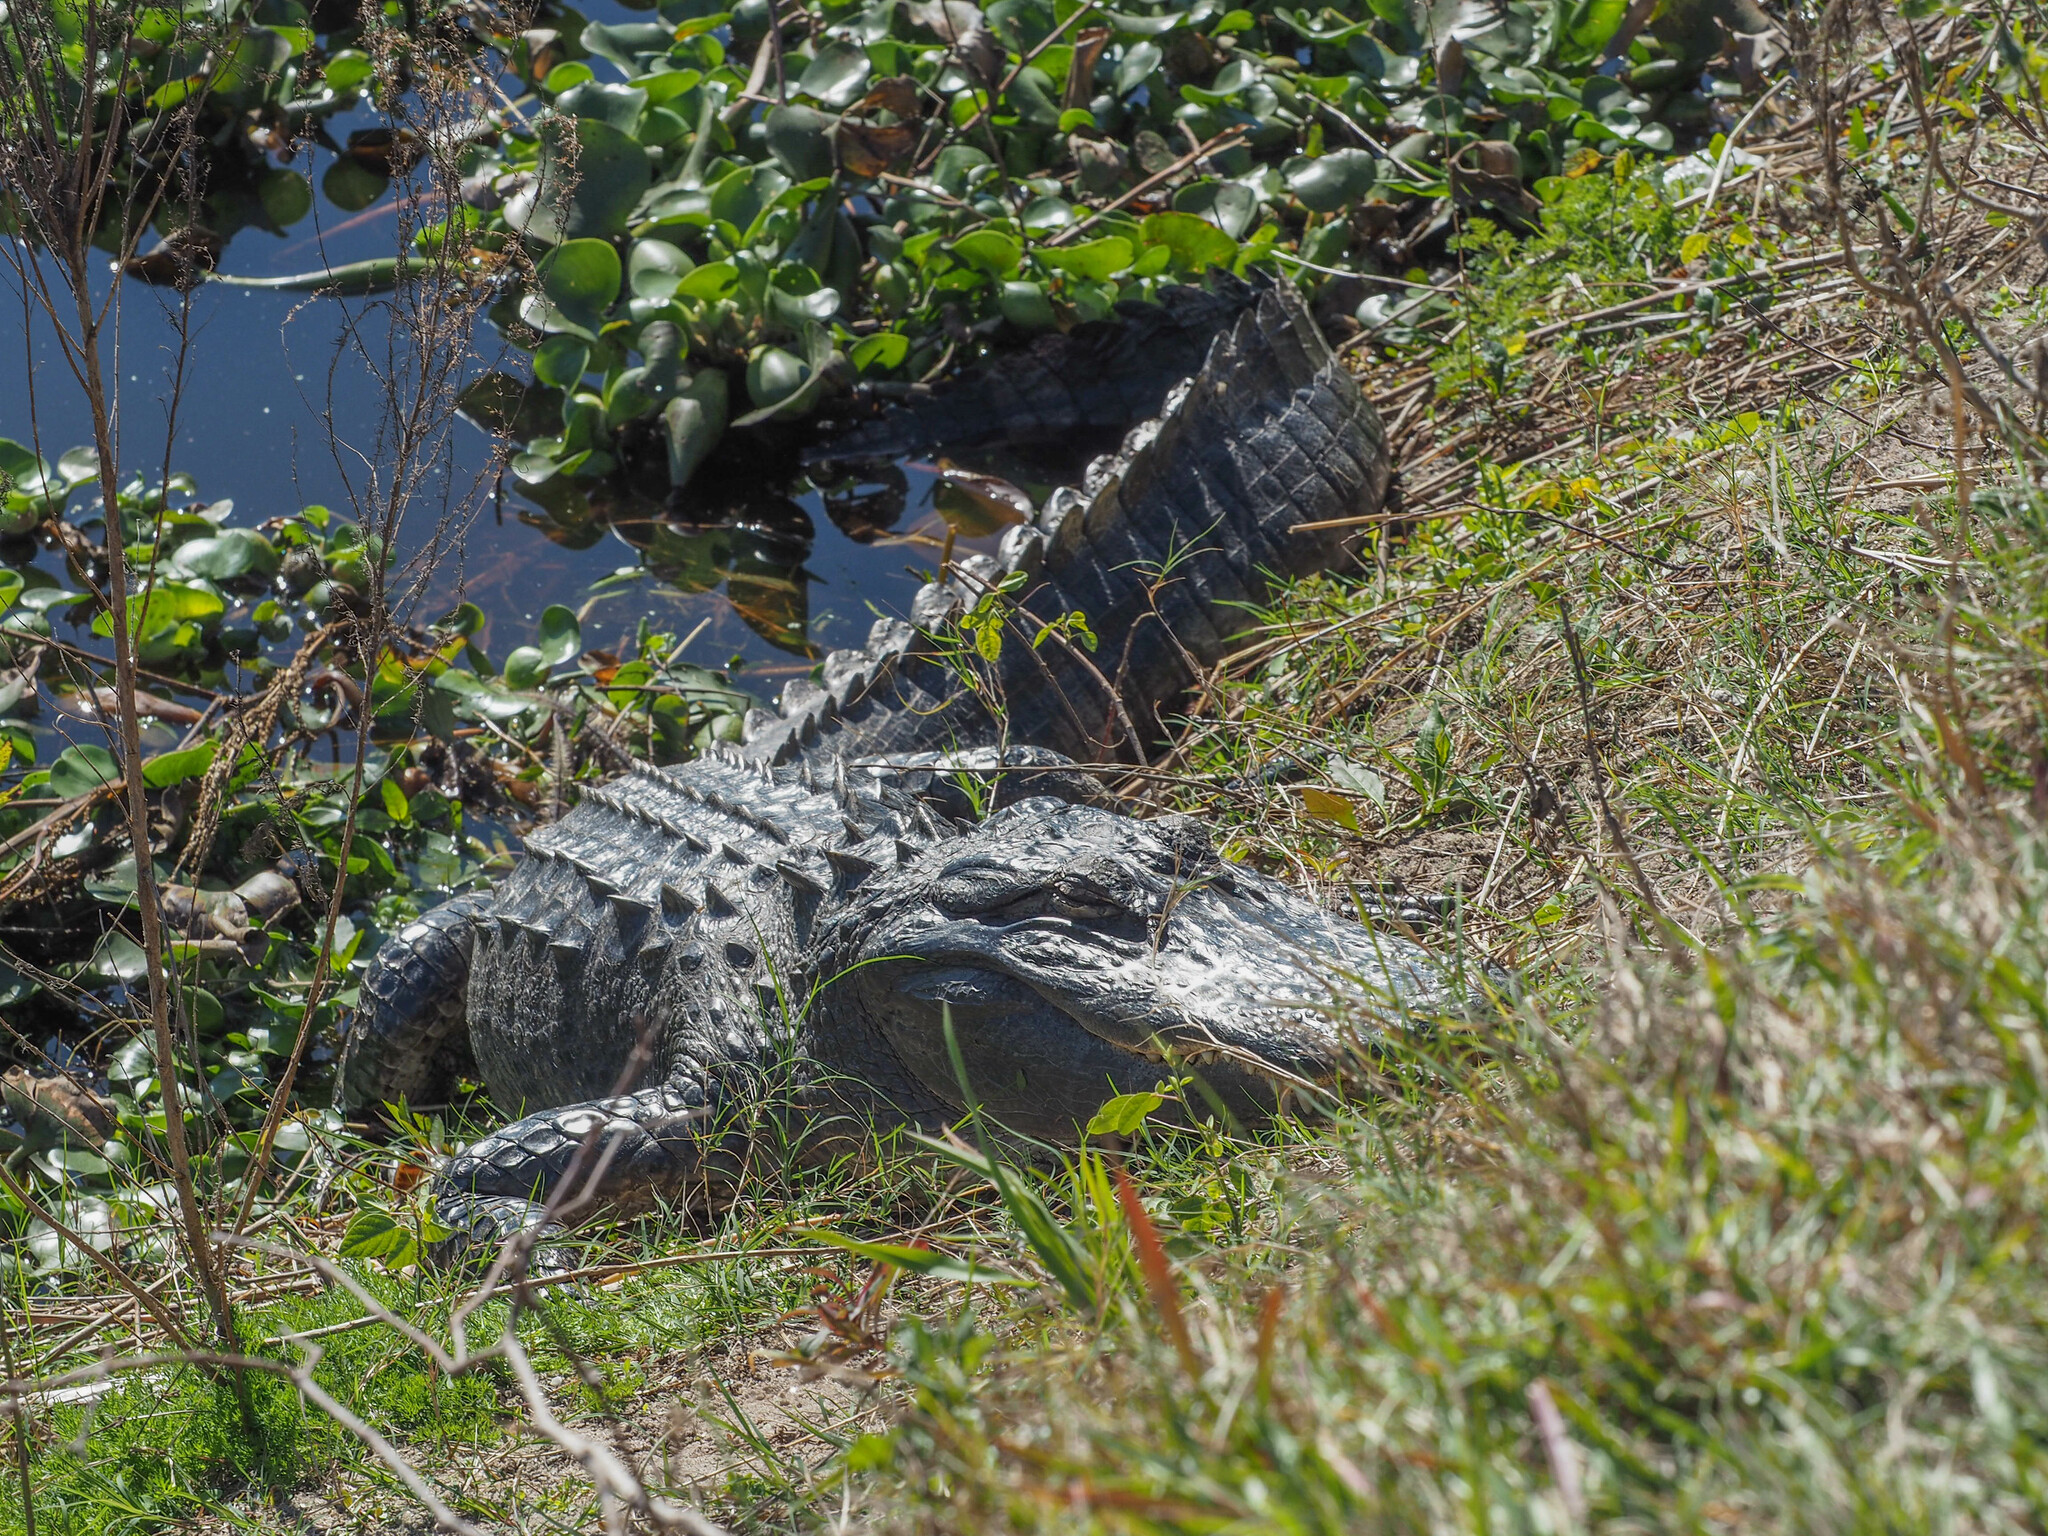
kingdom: Animalia
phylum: Chordata
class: Crocodylia
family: Alligatoridae
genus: Alligator
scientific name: Alligator mississippiensis
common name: American alligator
